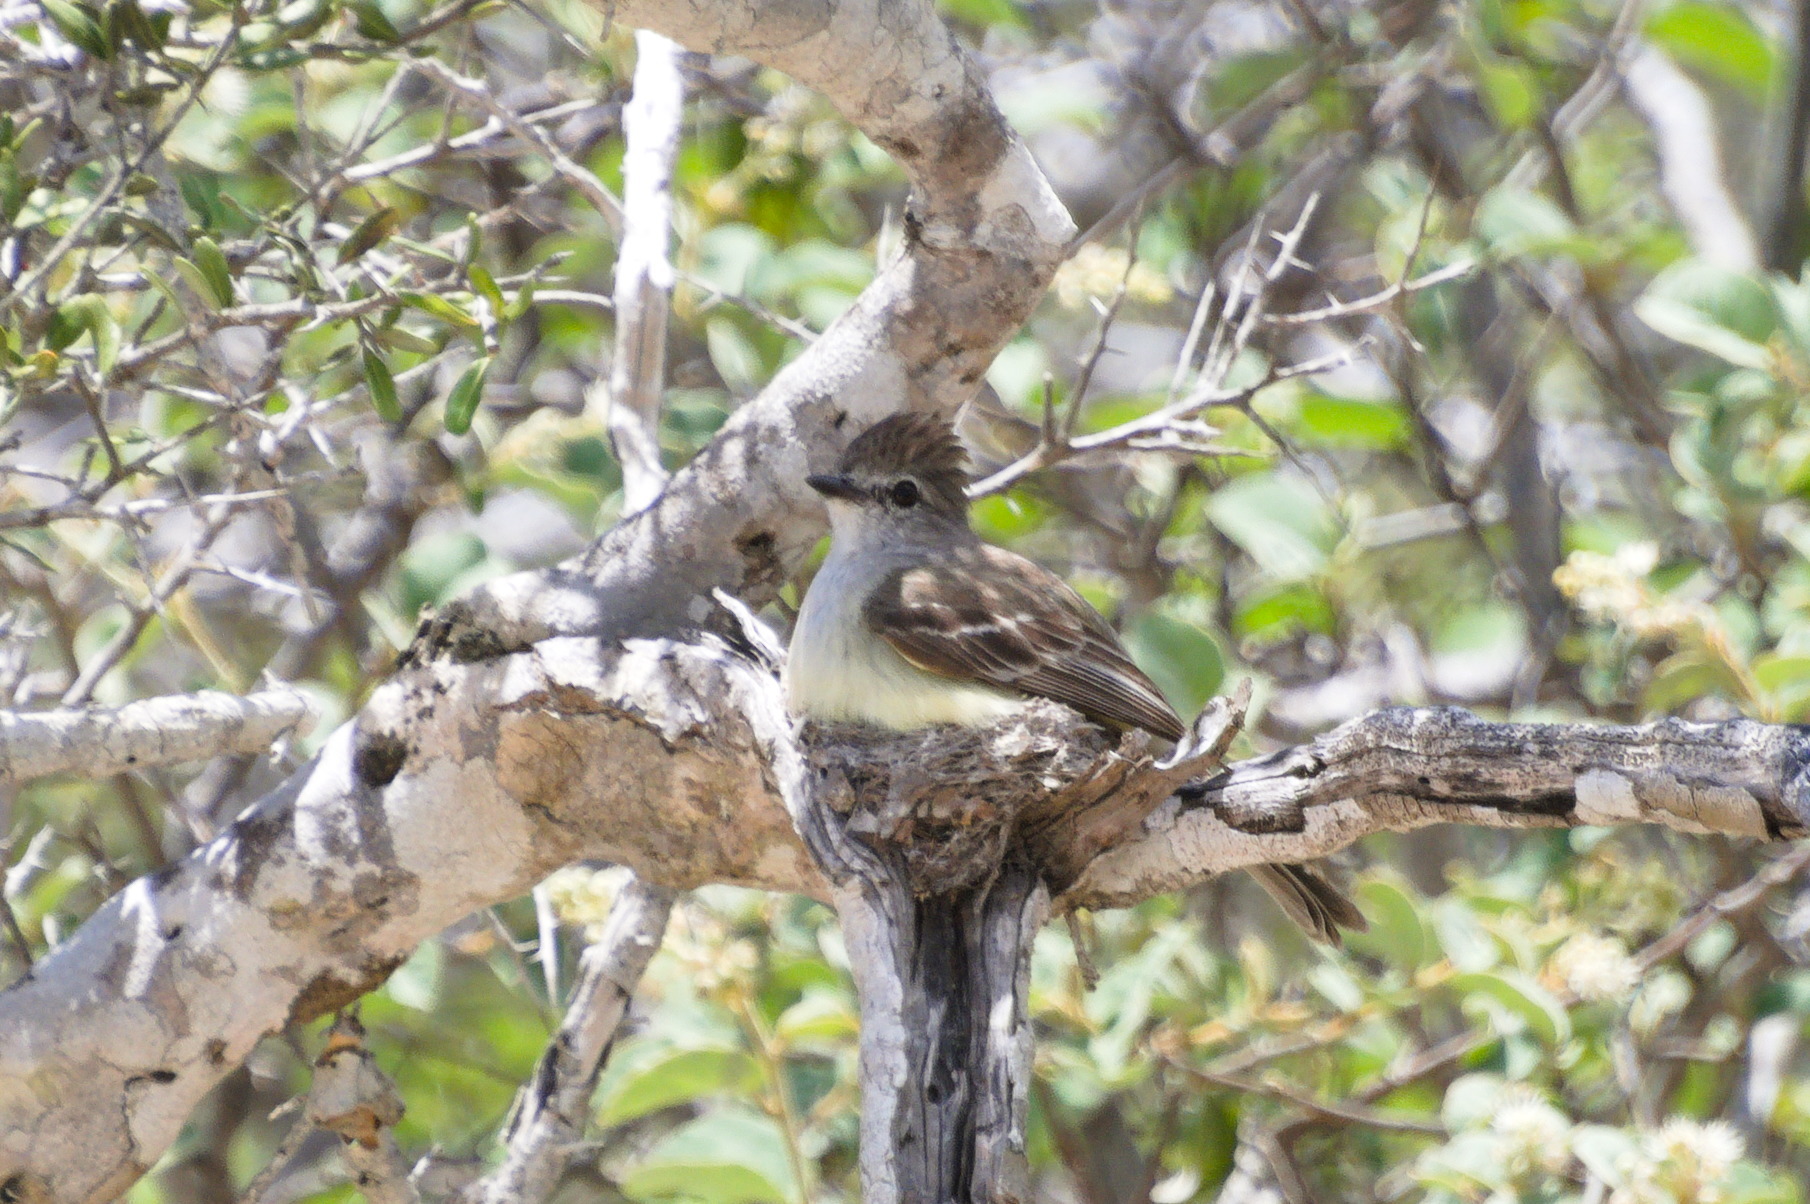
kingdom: Animalia
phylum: Chordata
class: Aves
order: Passeriformes
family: Tyrannidae
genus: Sublegatus
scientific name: Sublegatus arenarum
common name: Northern scrub-flycatcher
